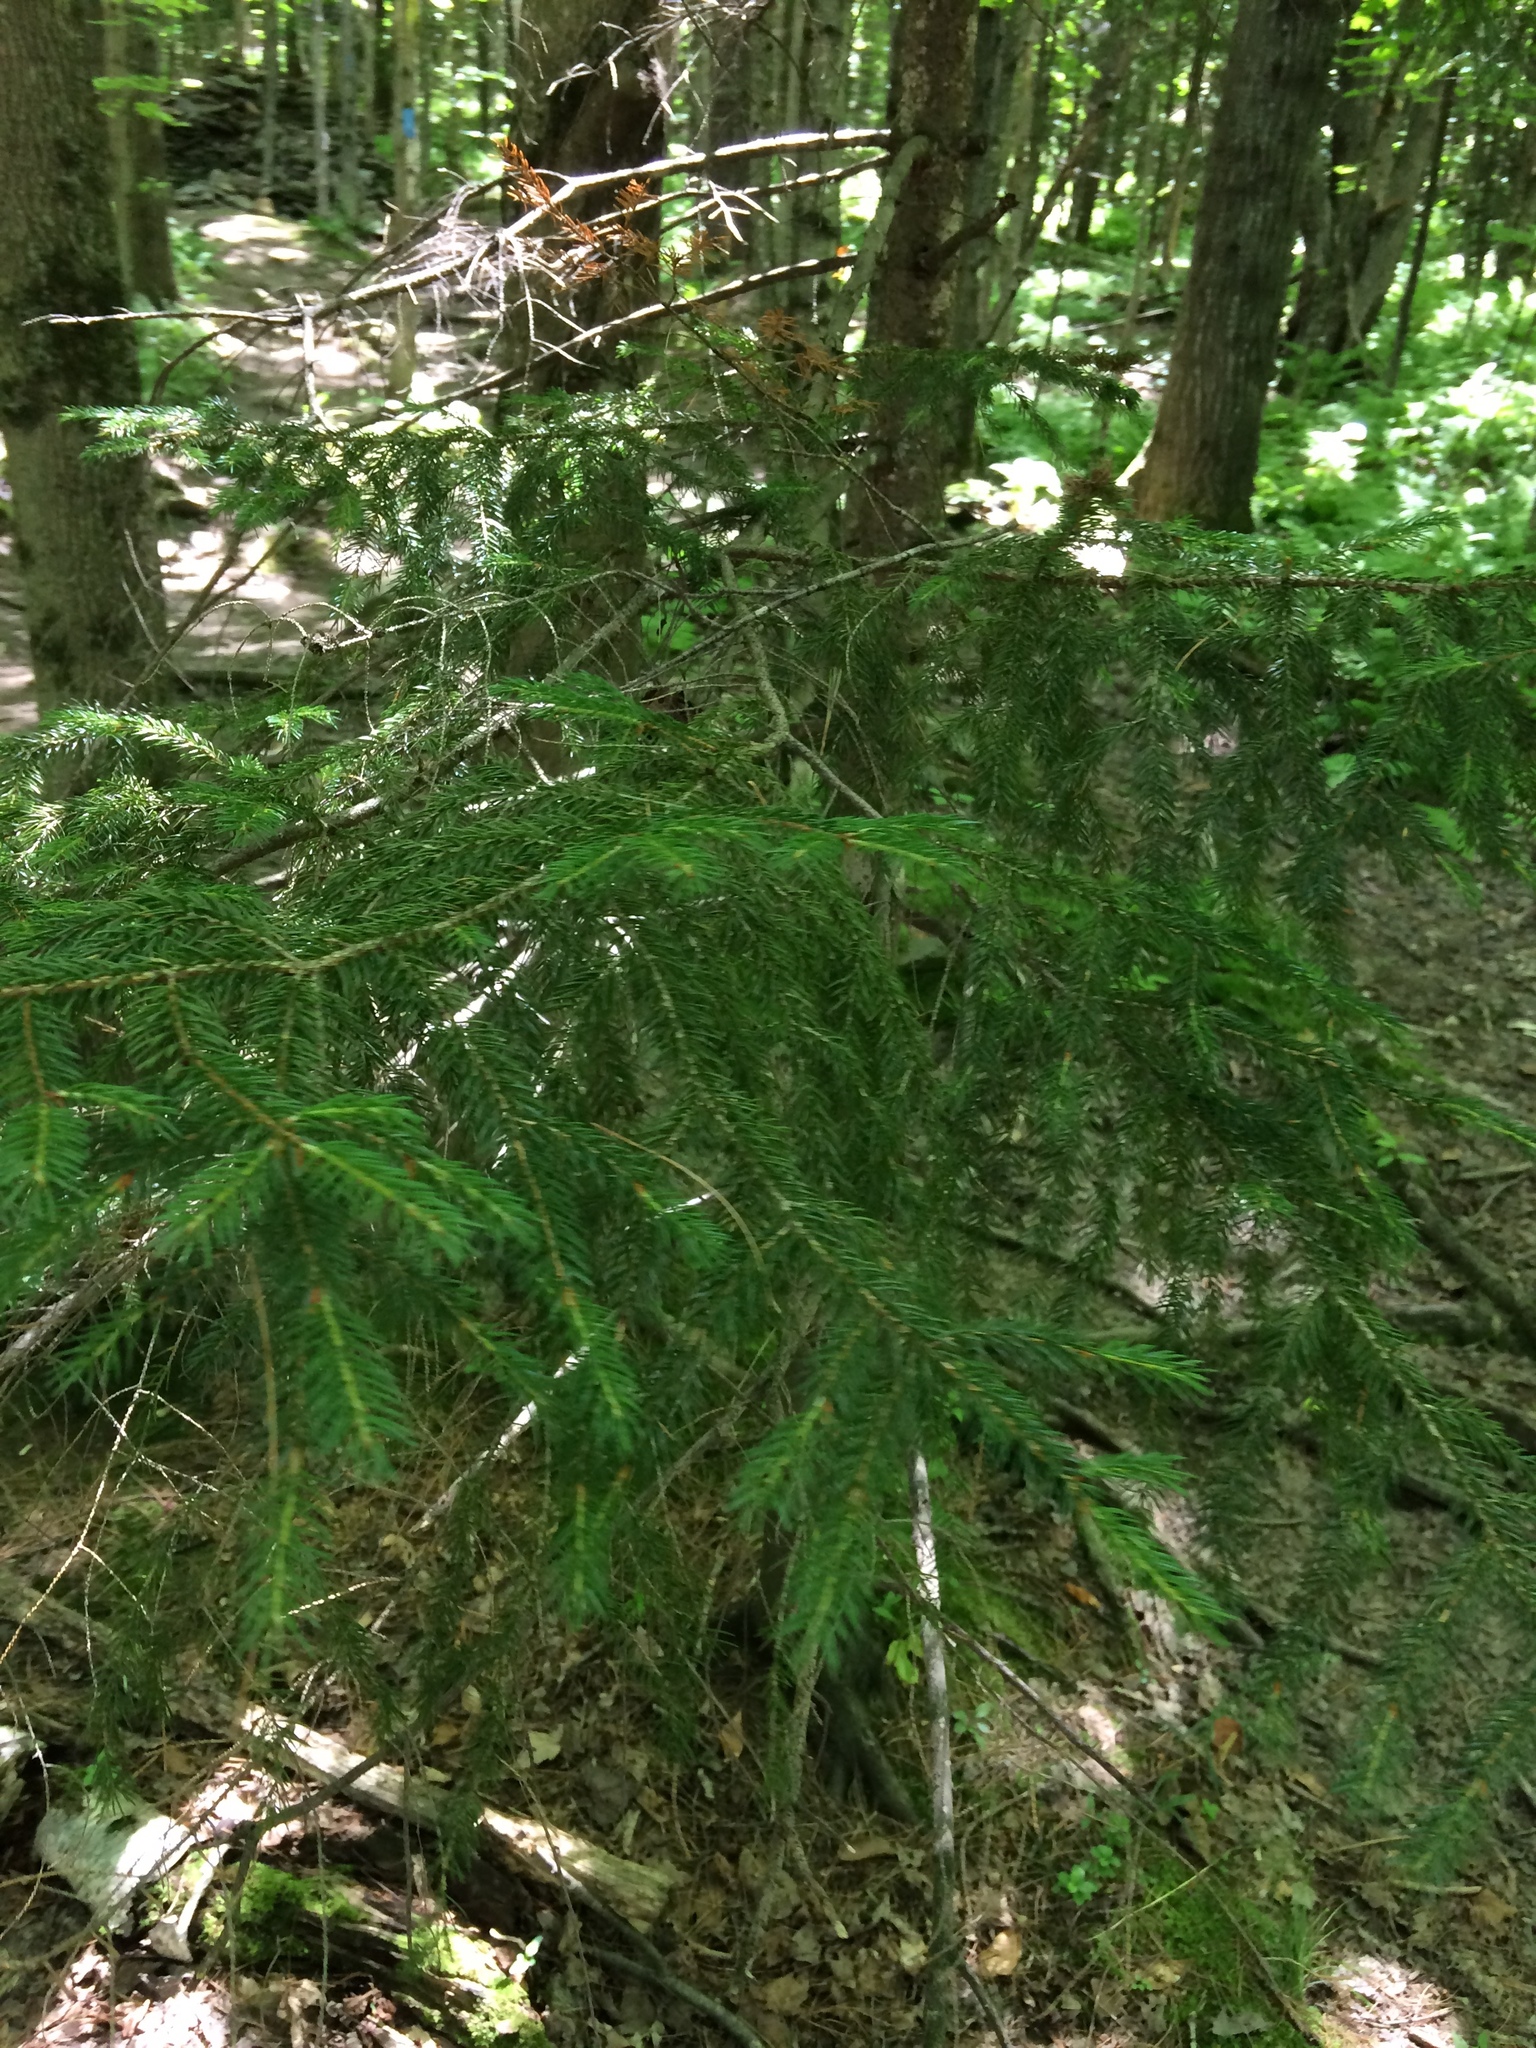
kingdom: Plantae
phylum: Tracheophyta
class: Pinopsida
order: Pinales
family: Pinaceae
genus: Picea
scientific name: Picea rubens
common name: Red spruce
